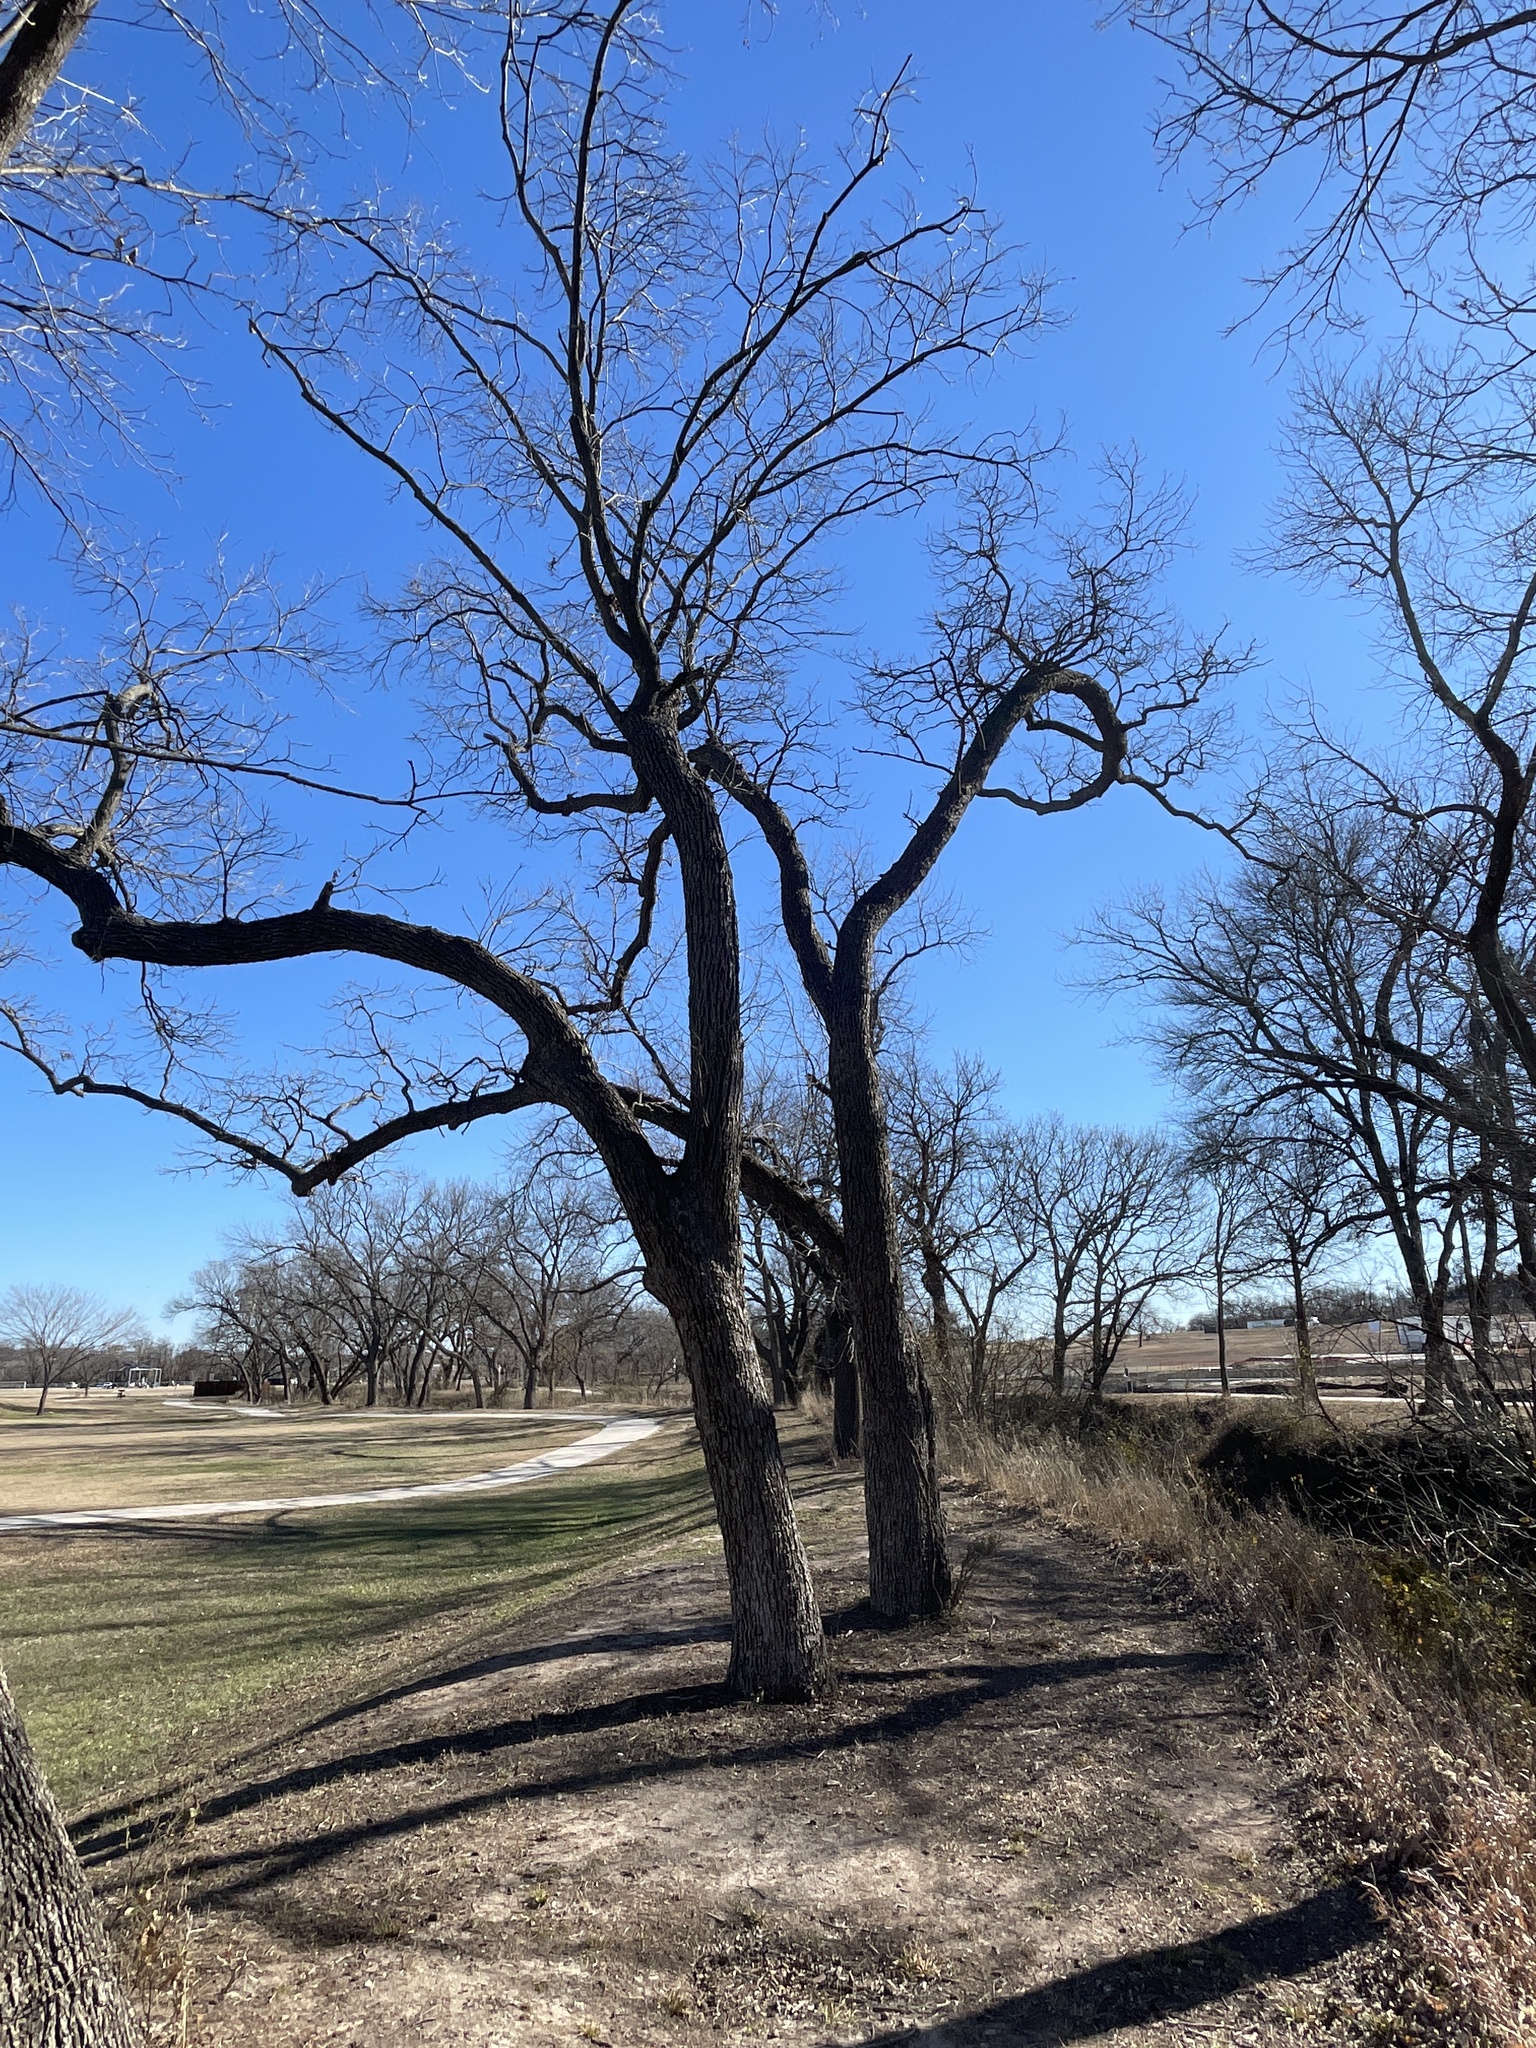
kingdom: Plantae
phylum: Tracheophyta
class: Magnoliopsida
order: Fagales
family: Juglandaceae
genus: Carya
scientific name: Carya illinoinensis
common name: Pecan
